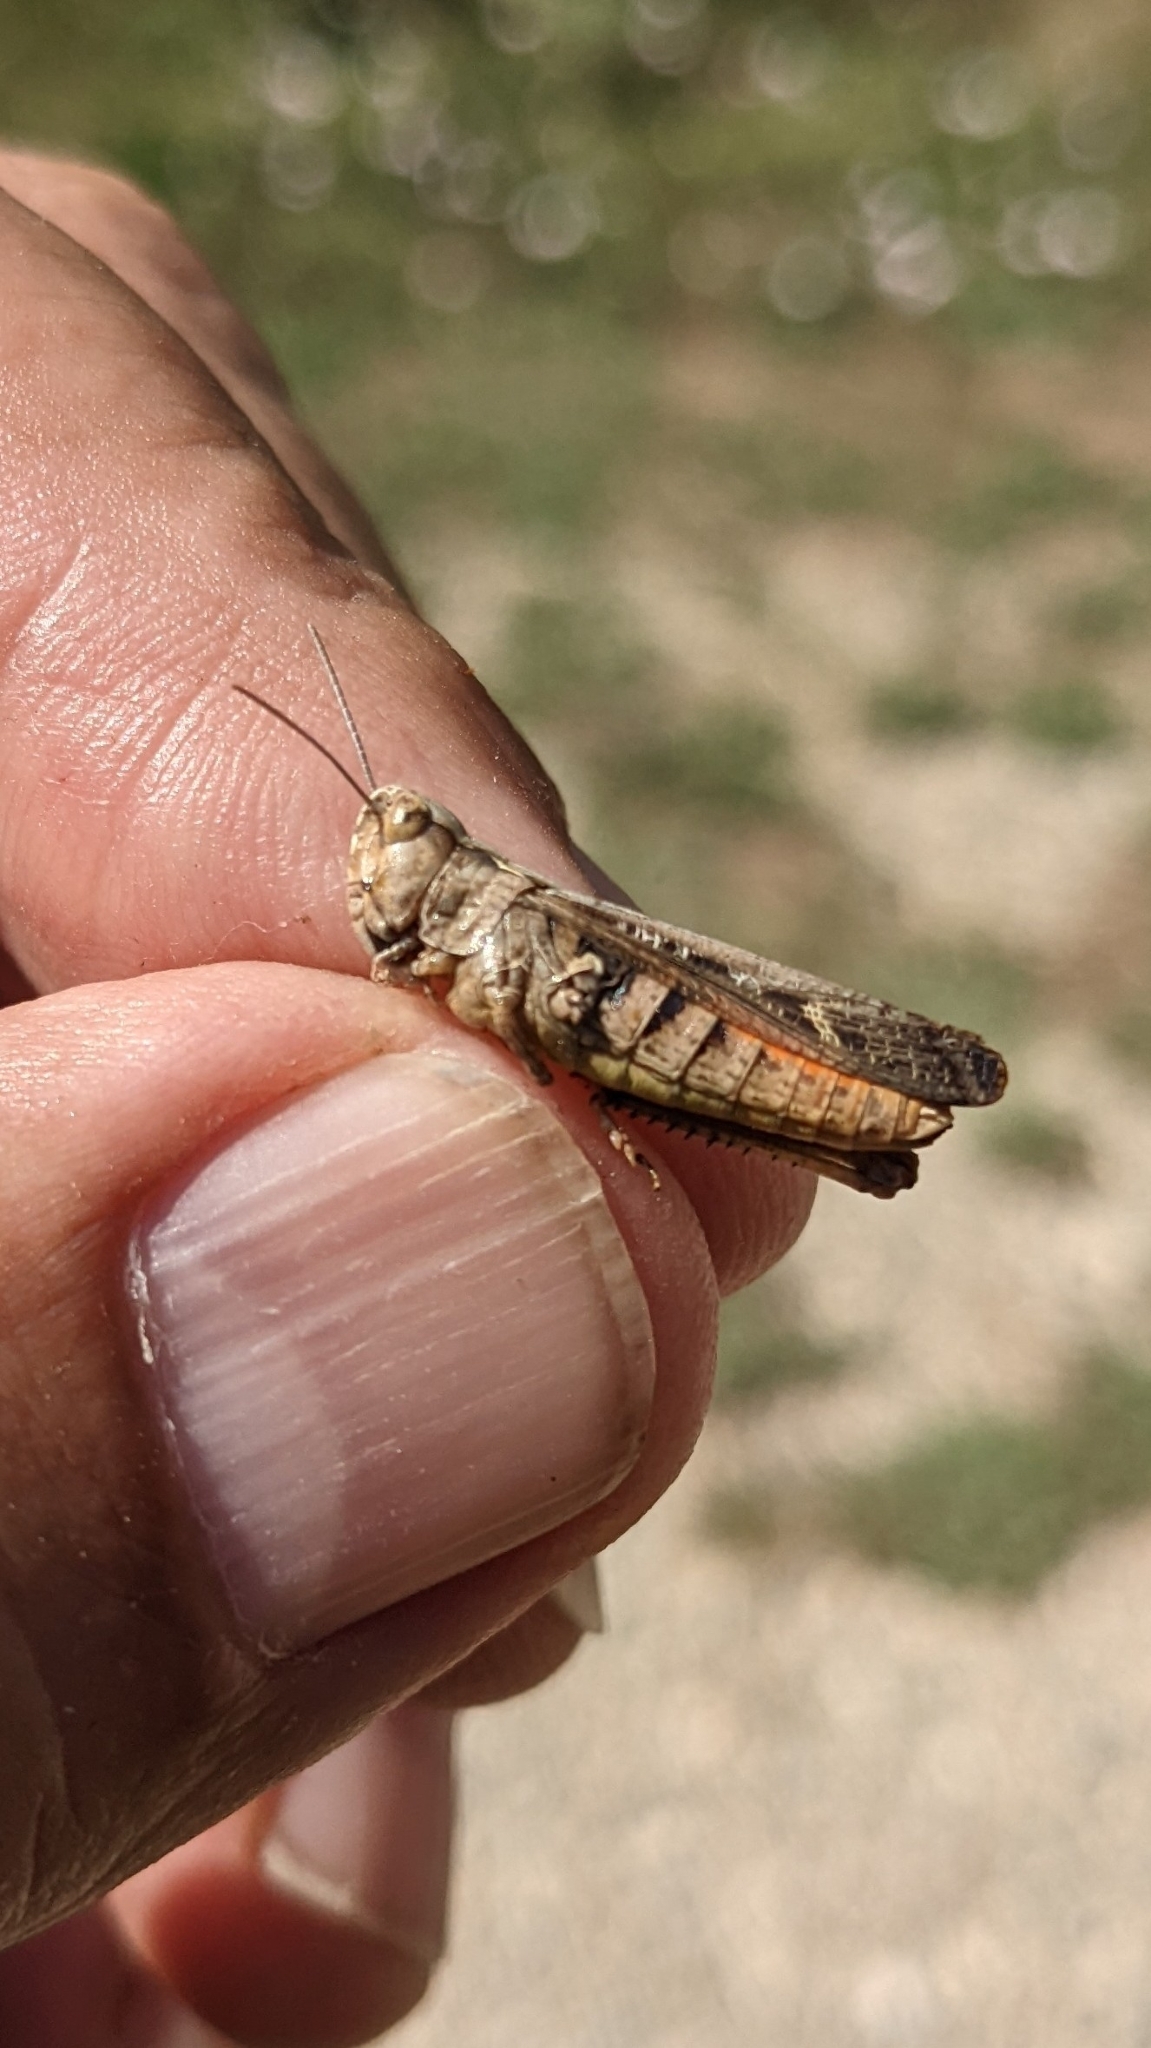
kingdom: Animalia
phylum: Arthropoda
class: Insecta
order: Orthoptera
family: Acrididae
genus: Chorthippus
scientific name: Chorthippus yersini
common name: Yersin's grasshopper
